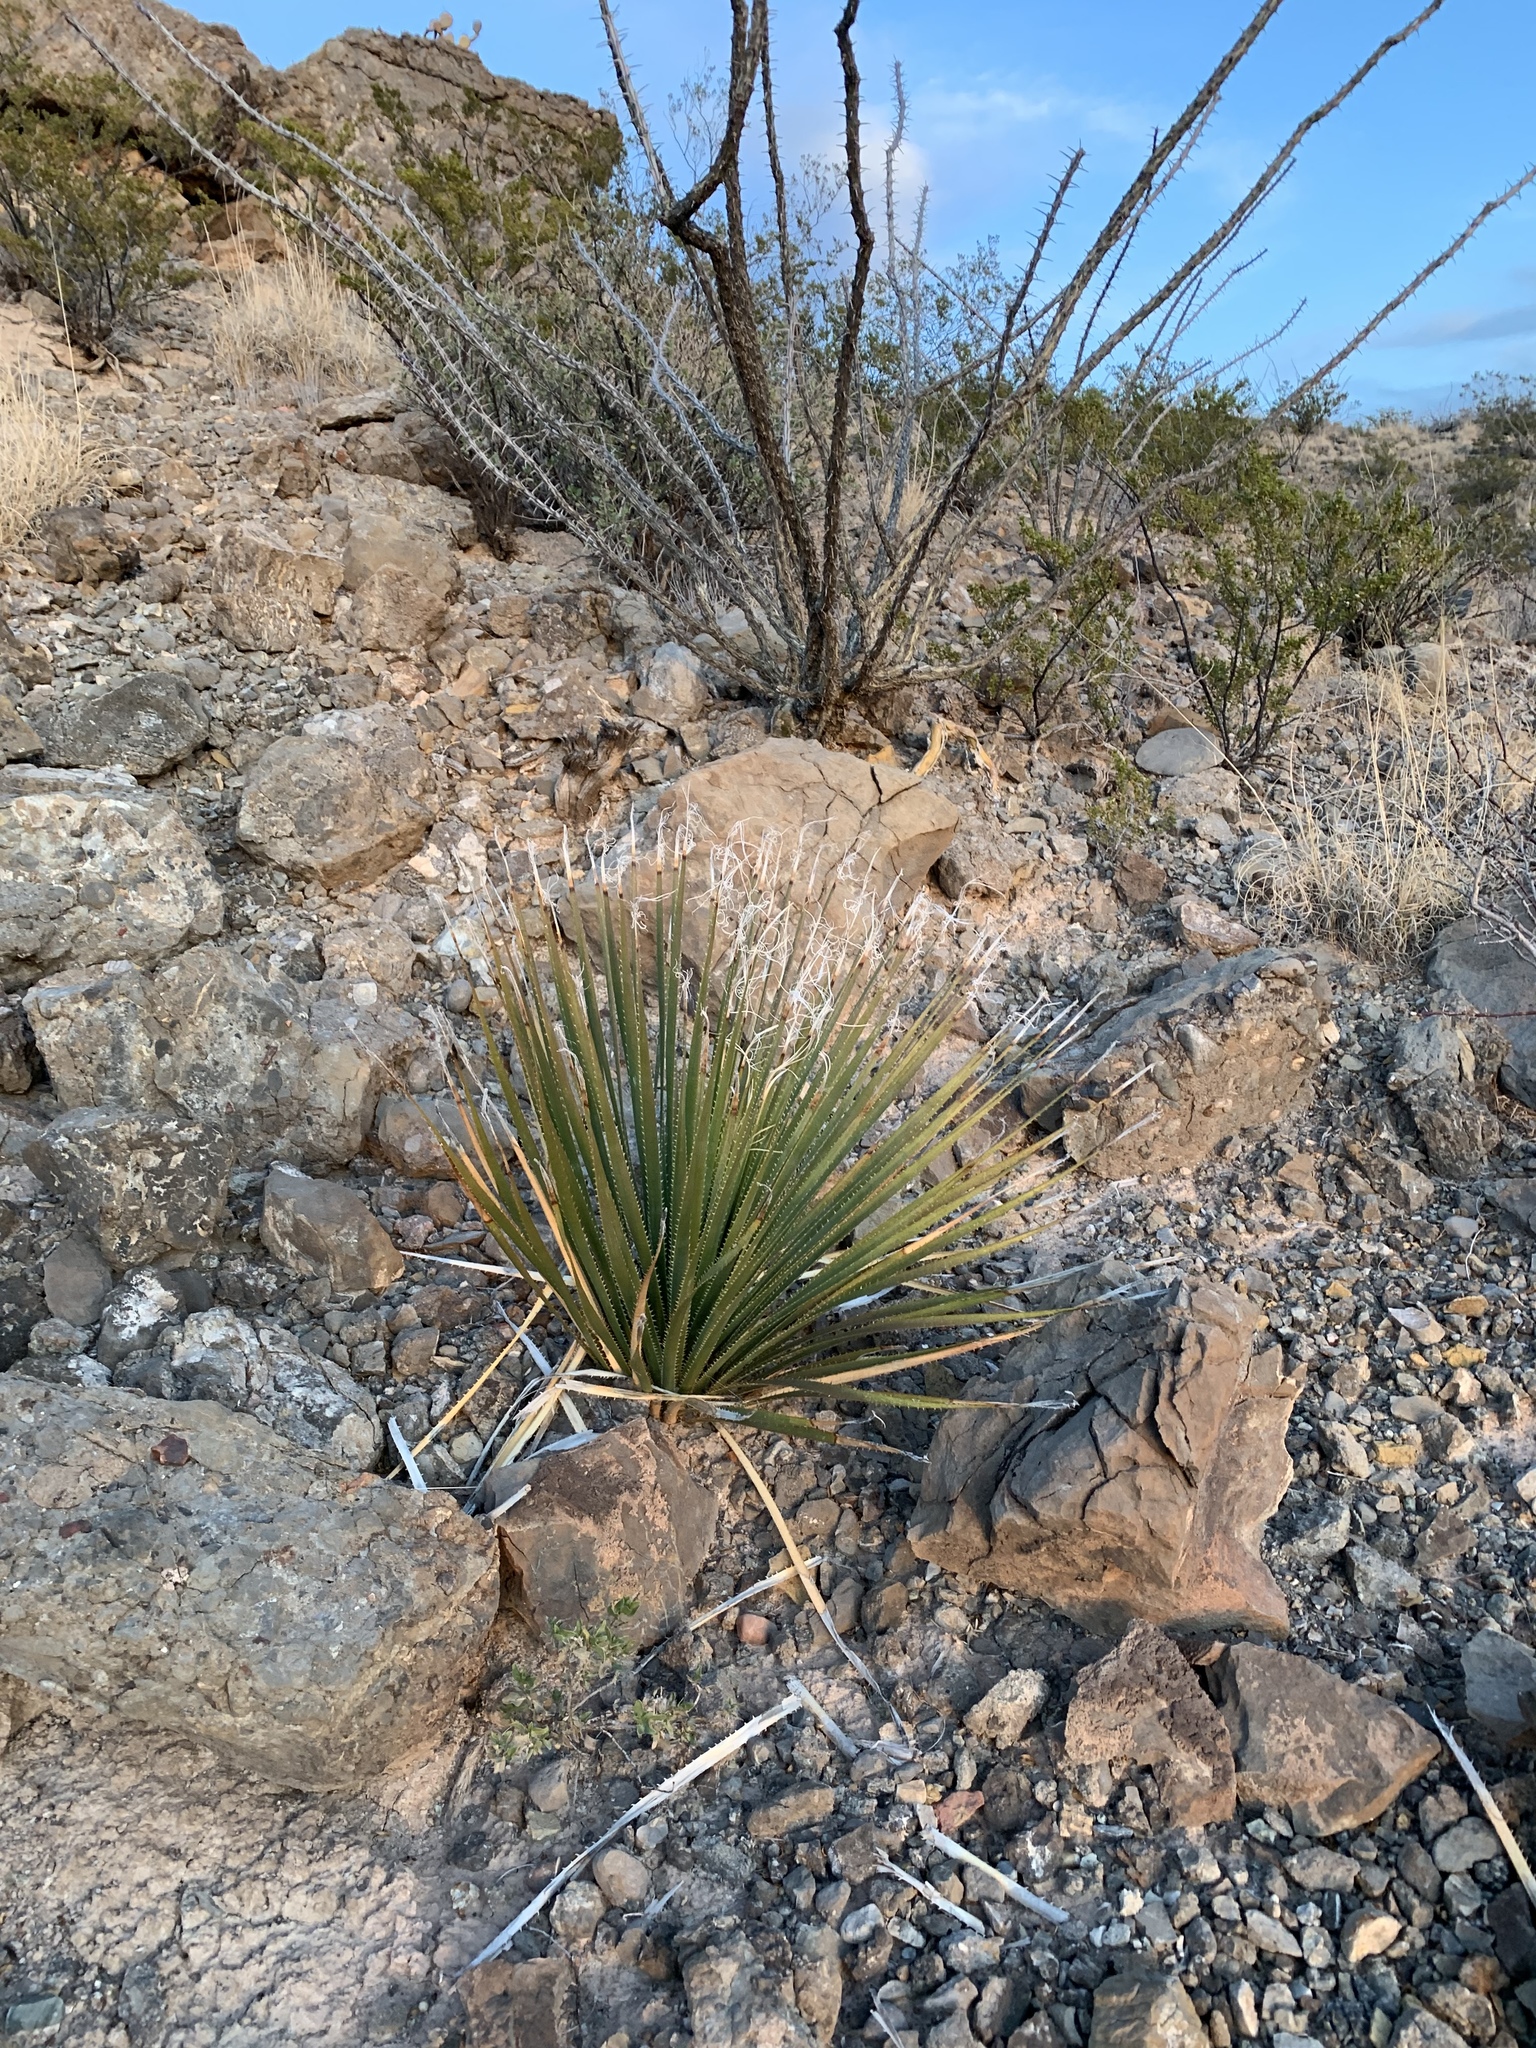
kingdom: Plantae
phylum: Tracheophyta
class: Liliopsida
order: Asparagales
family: Asparagaceae
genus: Dasylirion
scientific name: Dasylirion wheeleri
